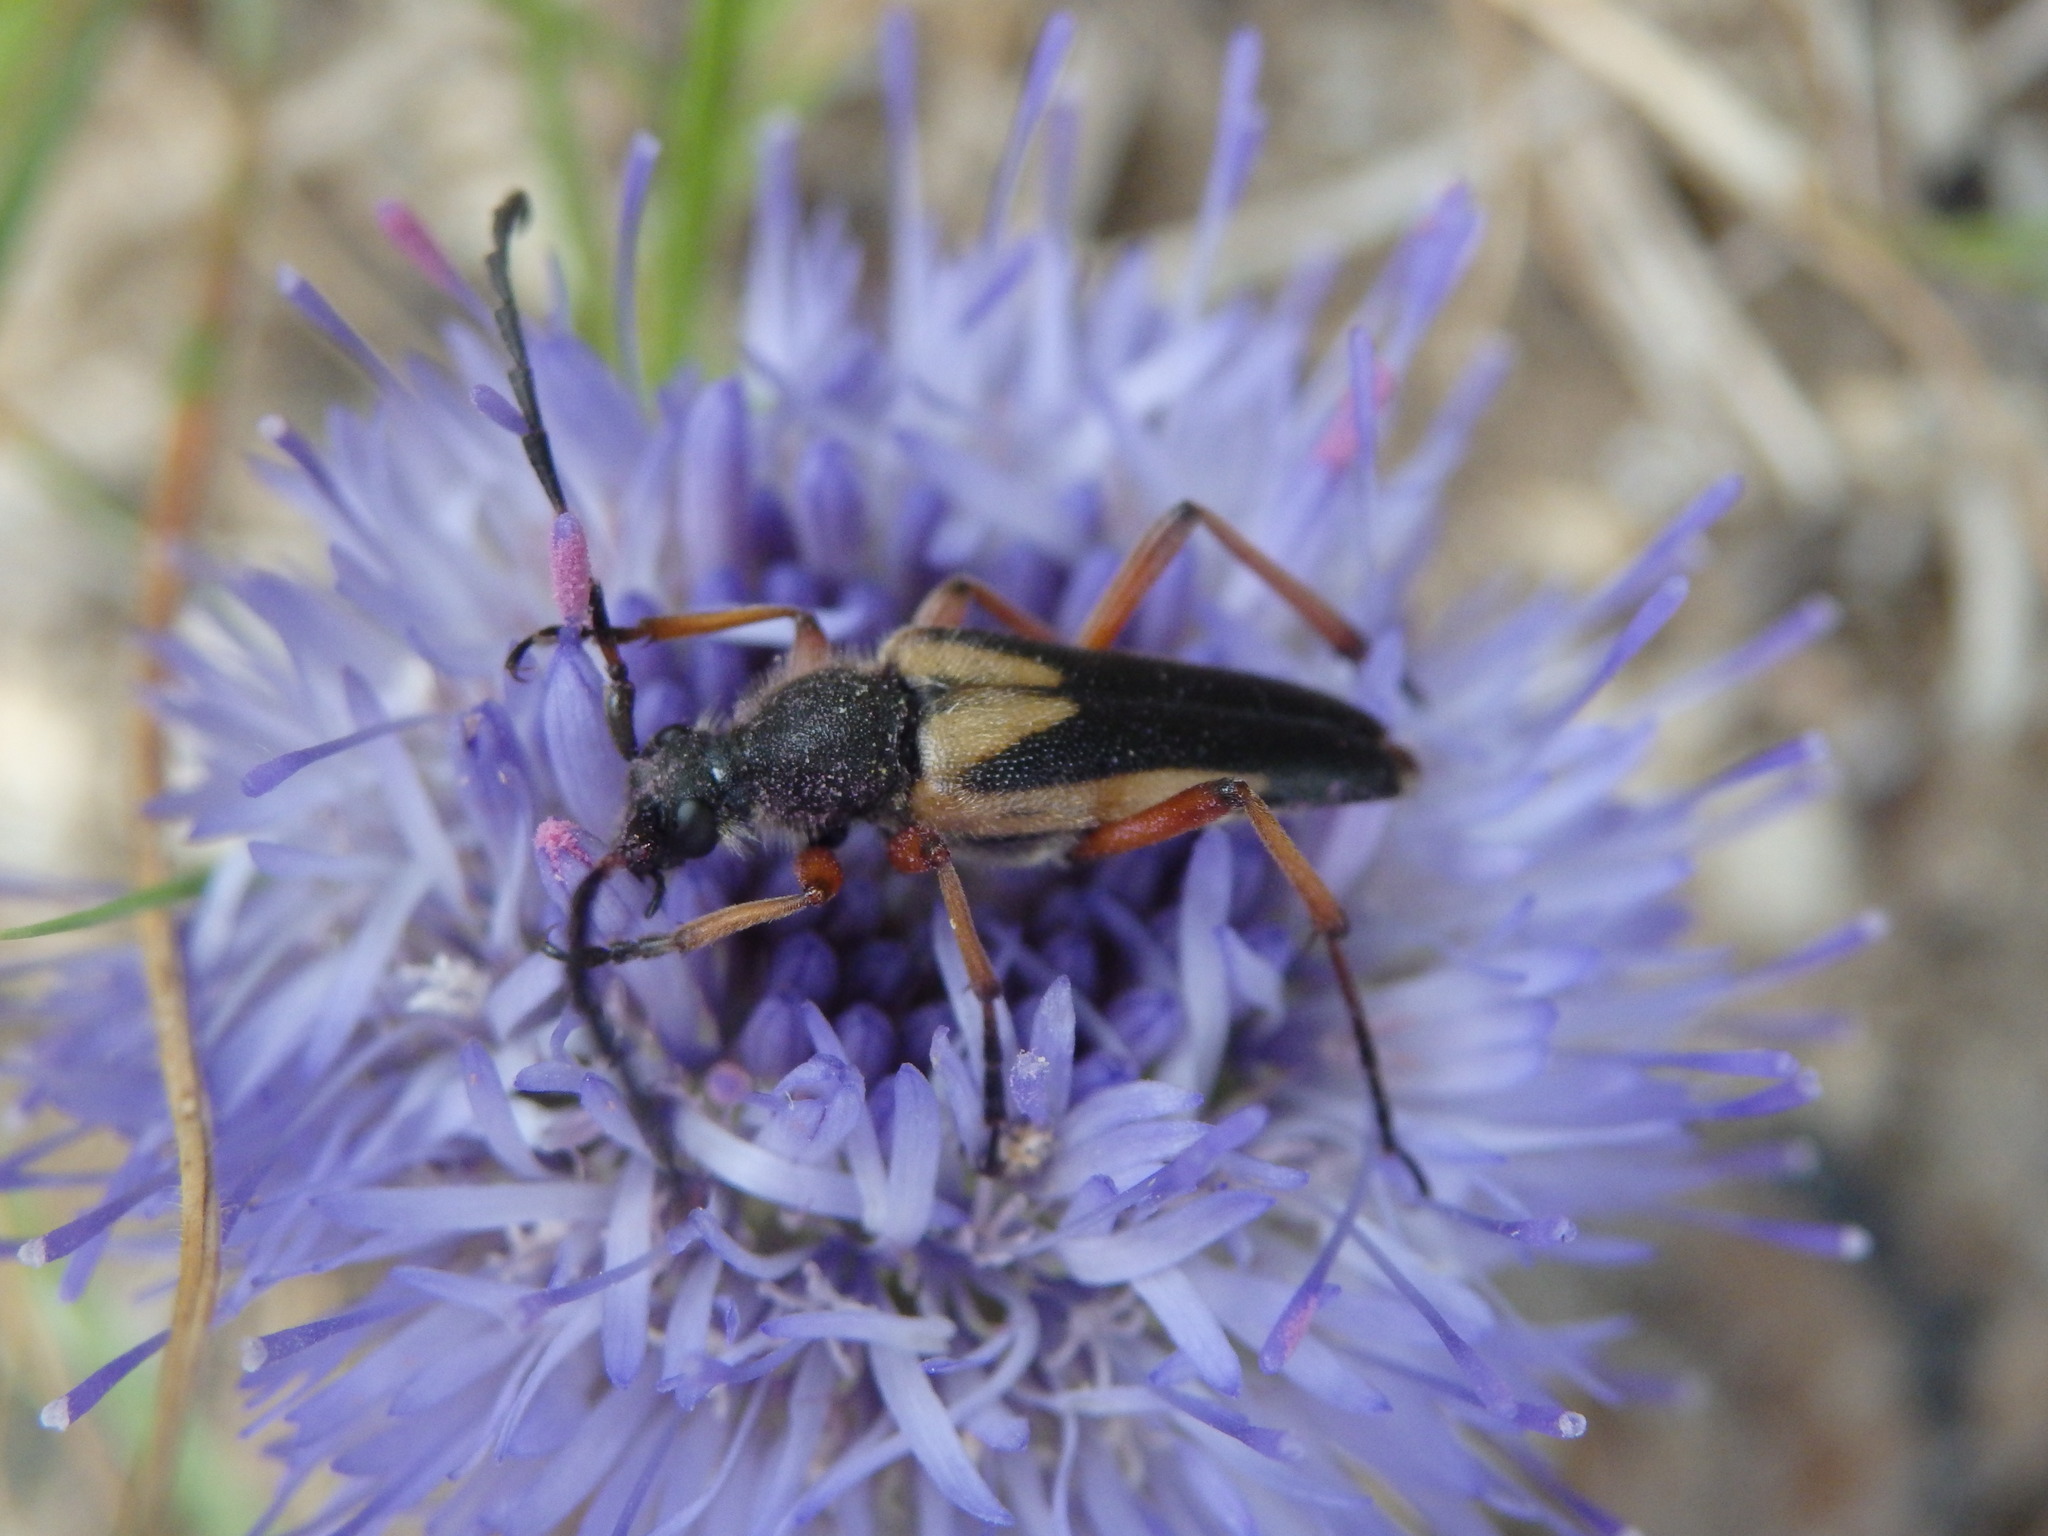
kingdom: Animalia
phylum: Arthropoda
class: Insecta
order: Coleoptera
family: Cerambycidae
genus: Stictoleptura
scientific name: Stictoleptura stragulata
